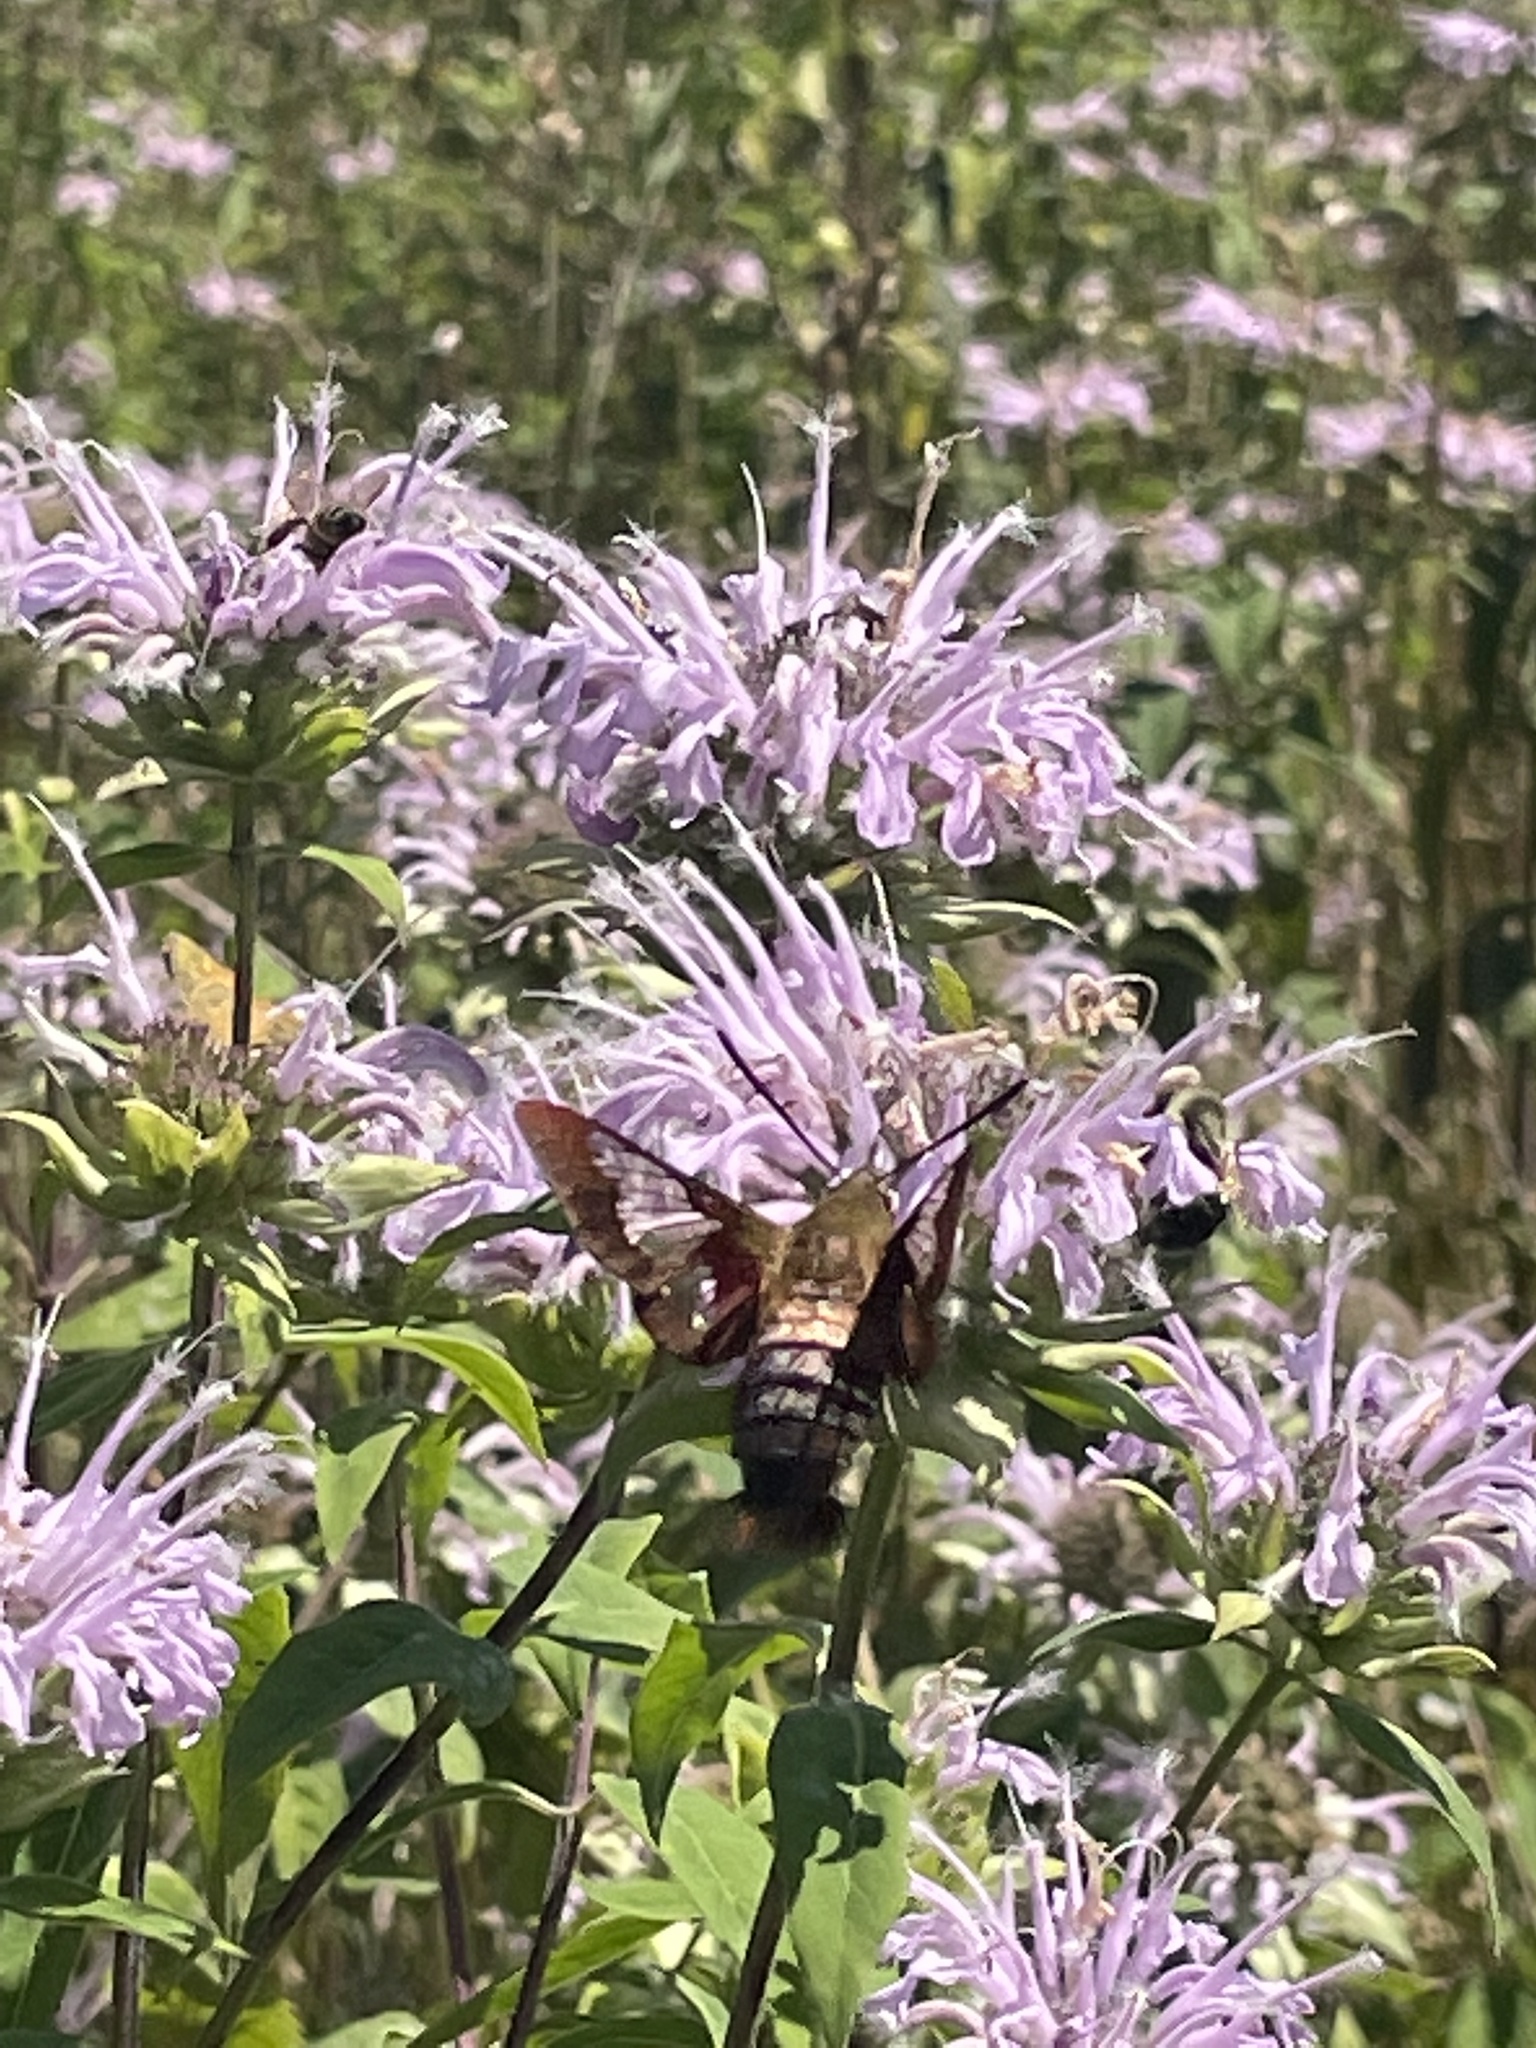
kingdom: Animalia
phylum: Arthropoda
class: Insecta
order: Lepidoptera
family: Sphingidae
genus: Hemaris
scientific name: Hemaris thysbe
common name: Common clear-wing
